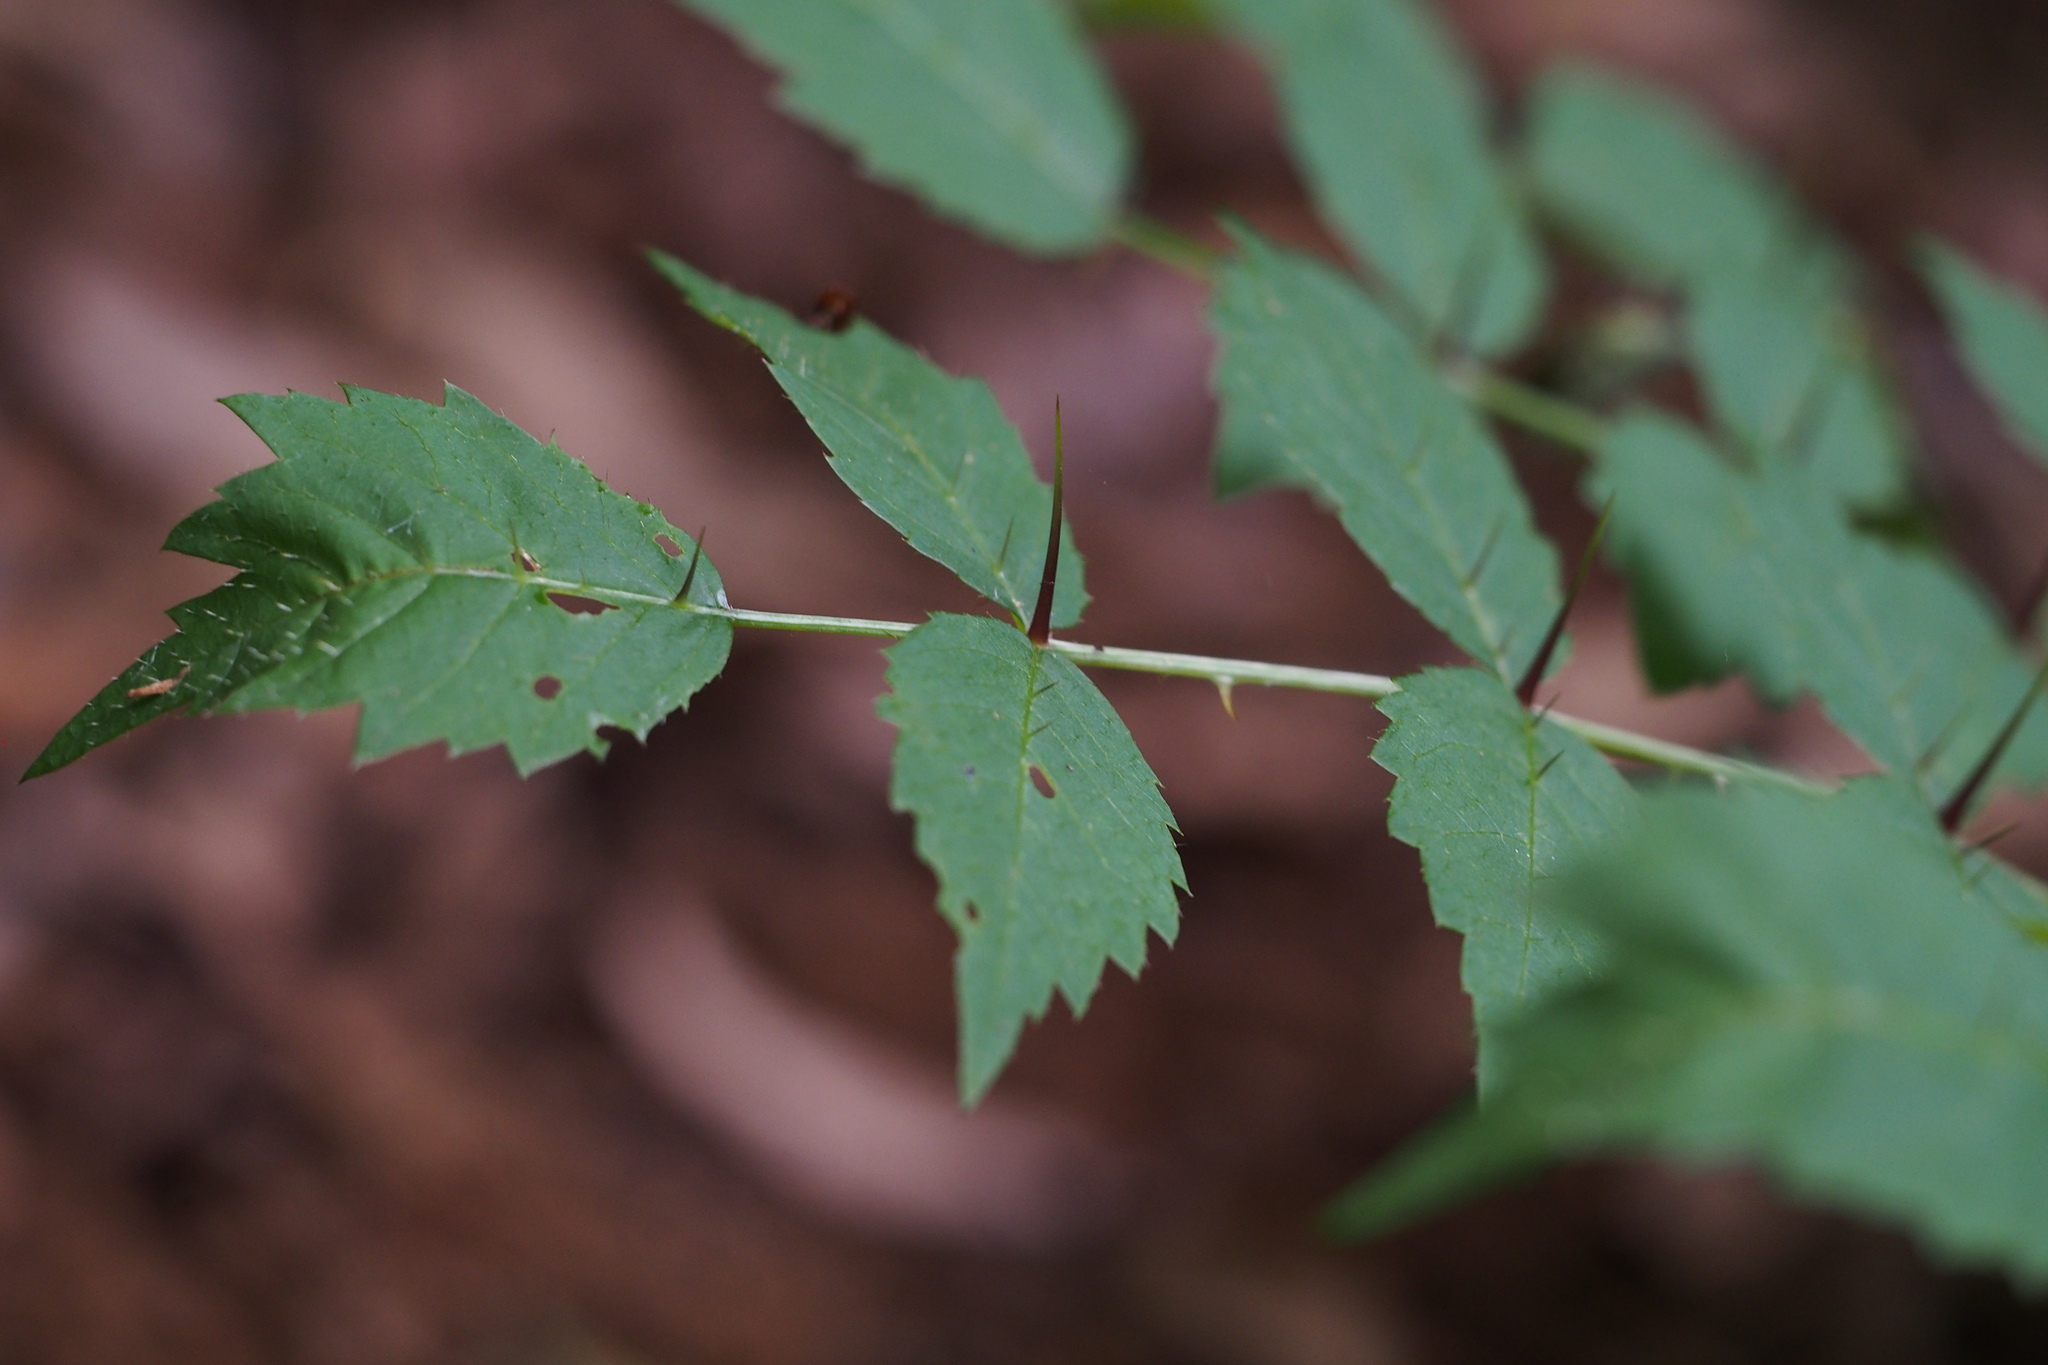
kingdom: Plantae
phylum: Tracheophyta
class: Magnoliopsida
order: Apiales
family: Araliaceae
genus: Aralia
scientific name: Aralia elata
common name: Japanese angelica-tree
